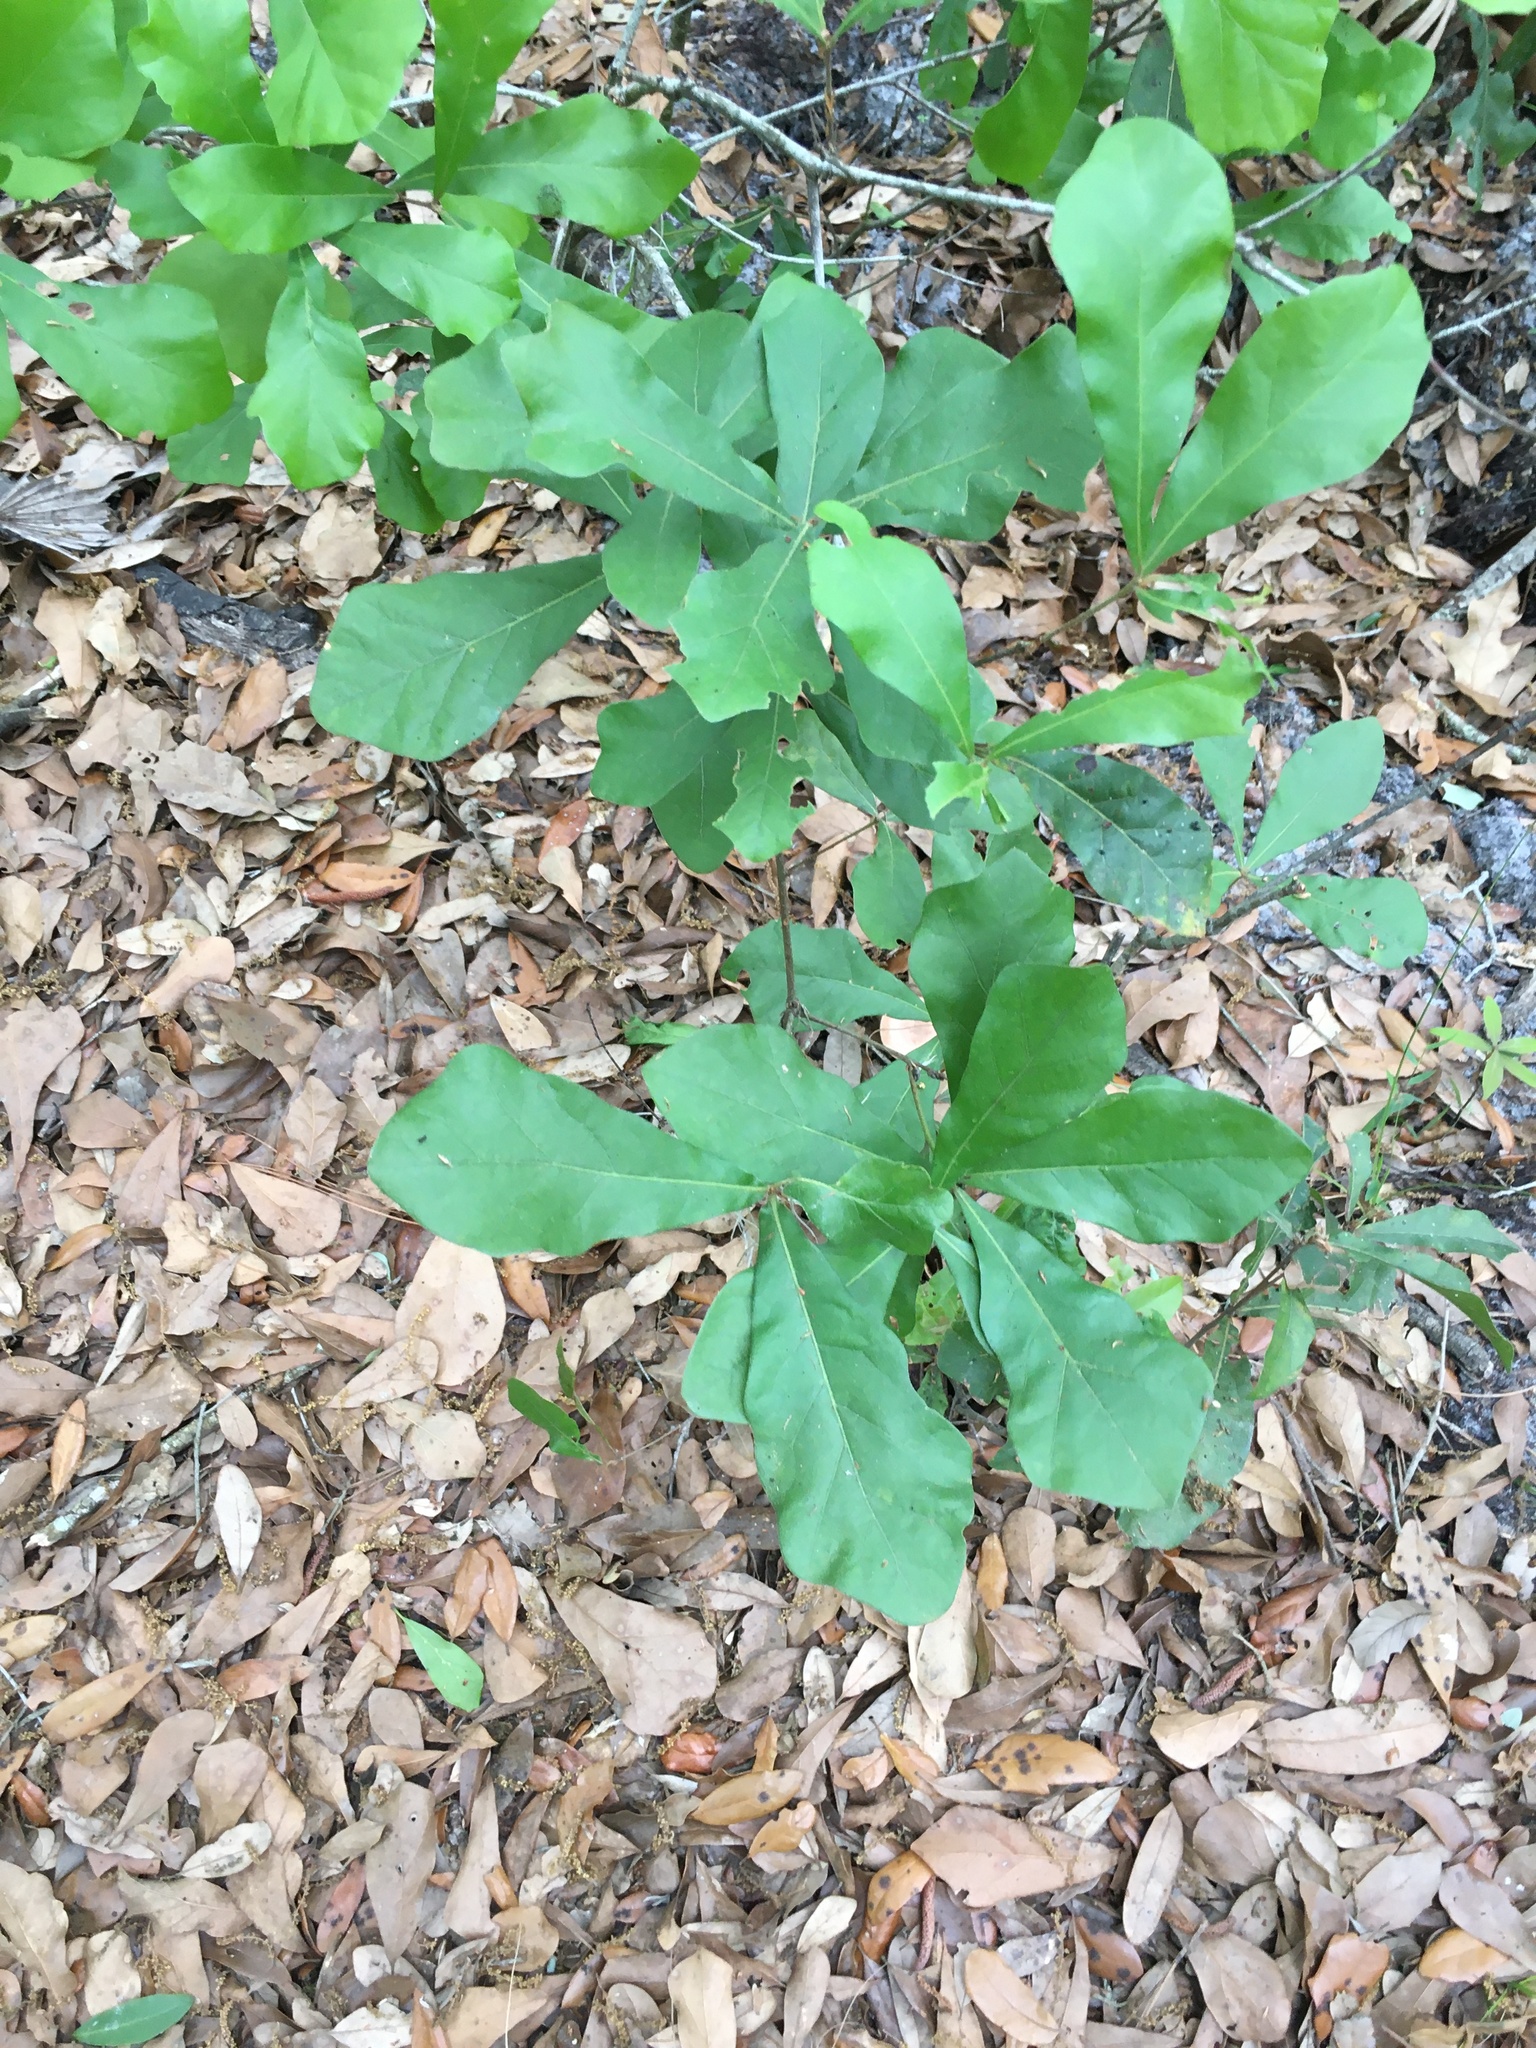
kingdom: Plantae
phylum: Tracheophyta
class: Magnoliopsida
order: Fagales
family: Fagaceae
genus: Quercus
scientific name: Quercus nigra
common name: Water oak
